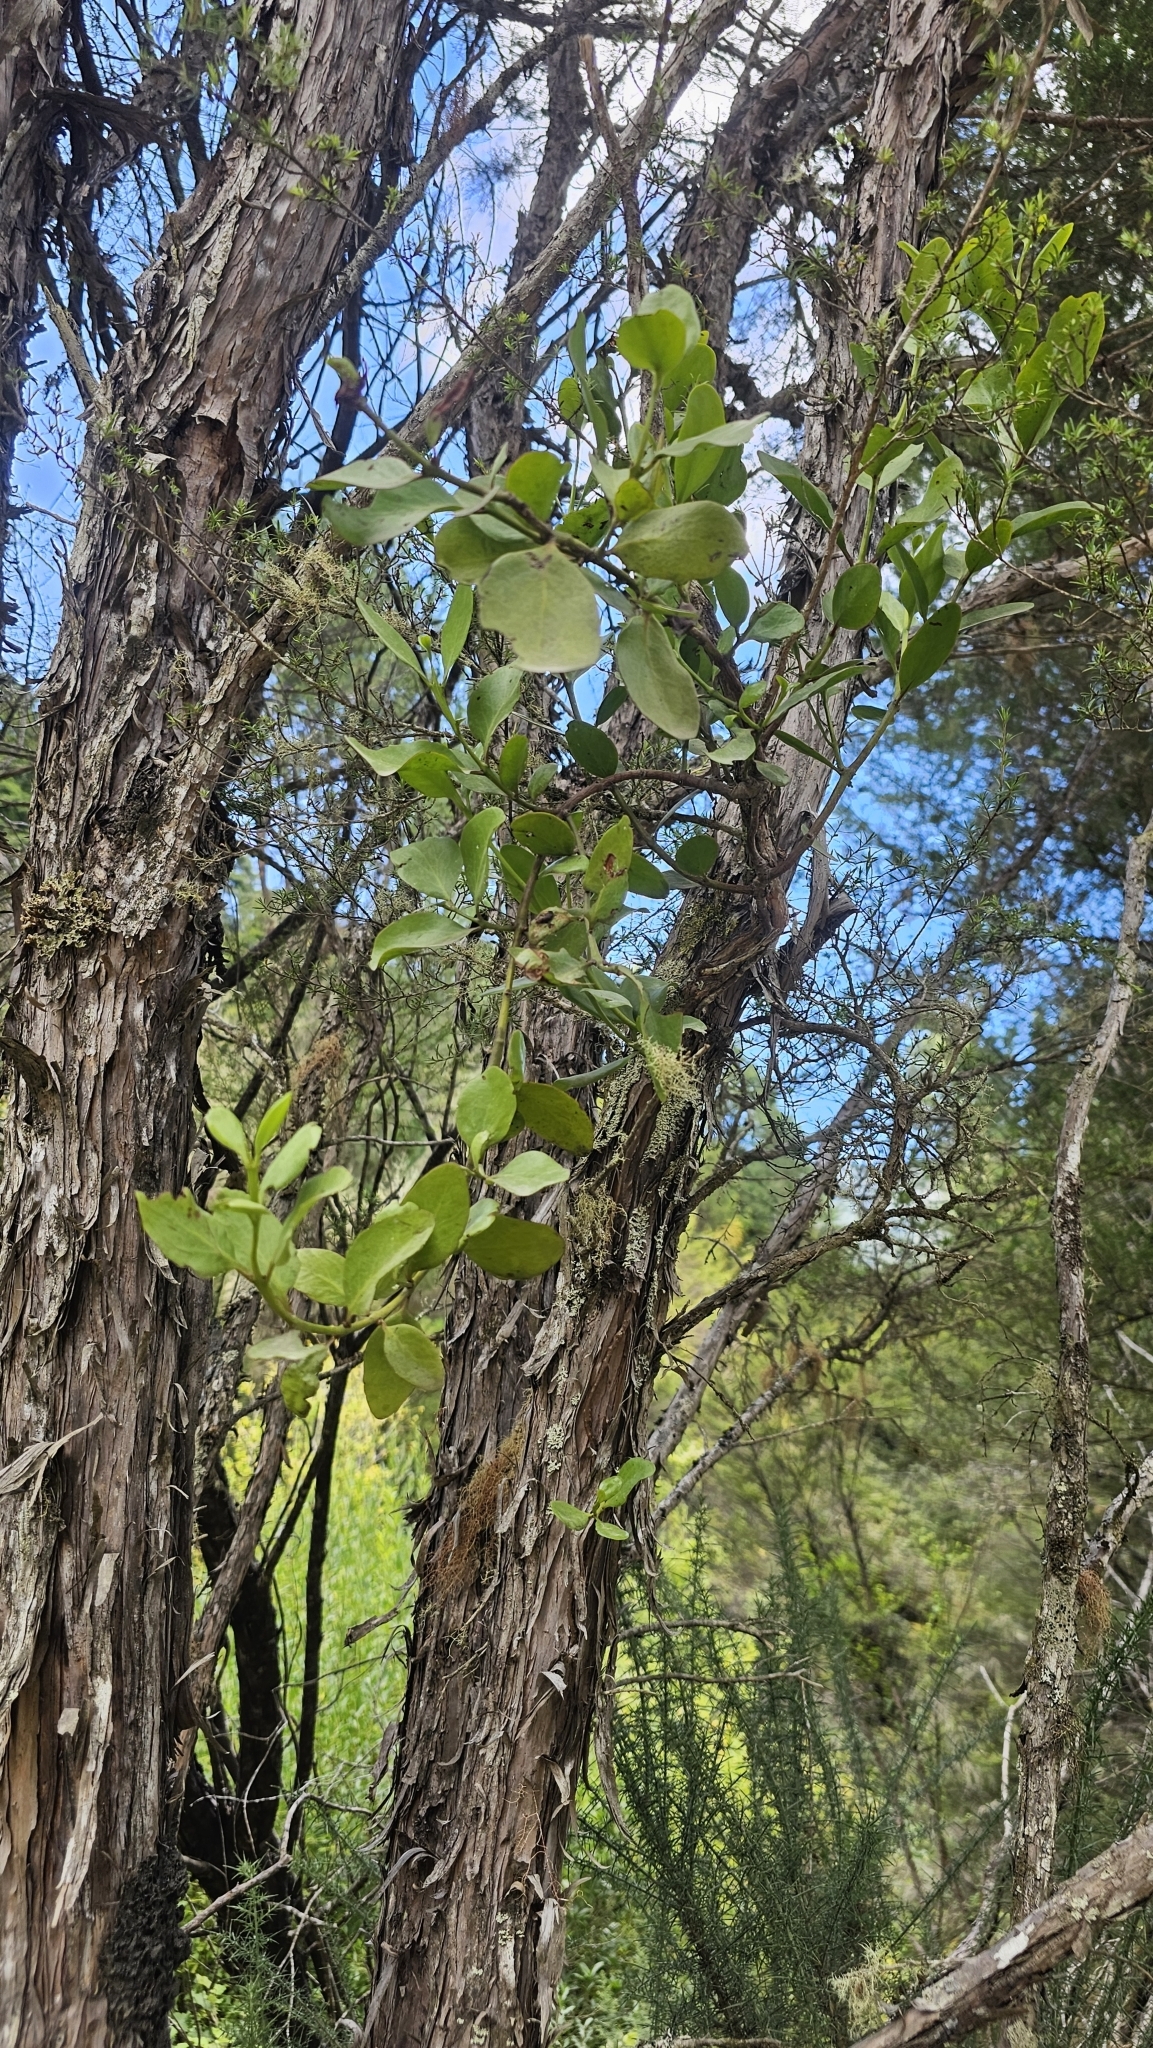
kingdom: Plantae
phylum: Tracheophyta
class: Magnoliopsida
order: Santalales
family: Loranthaceae
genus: Ileostylus
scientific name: Ileostylus micranthus
